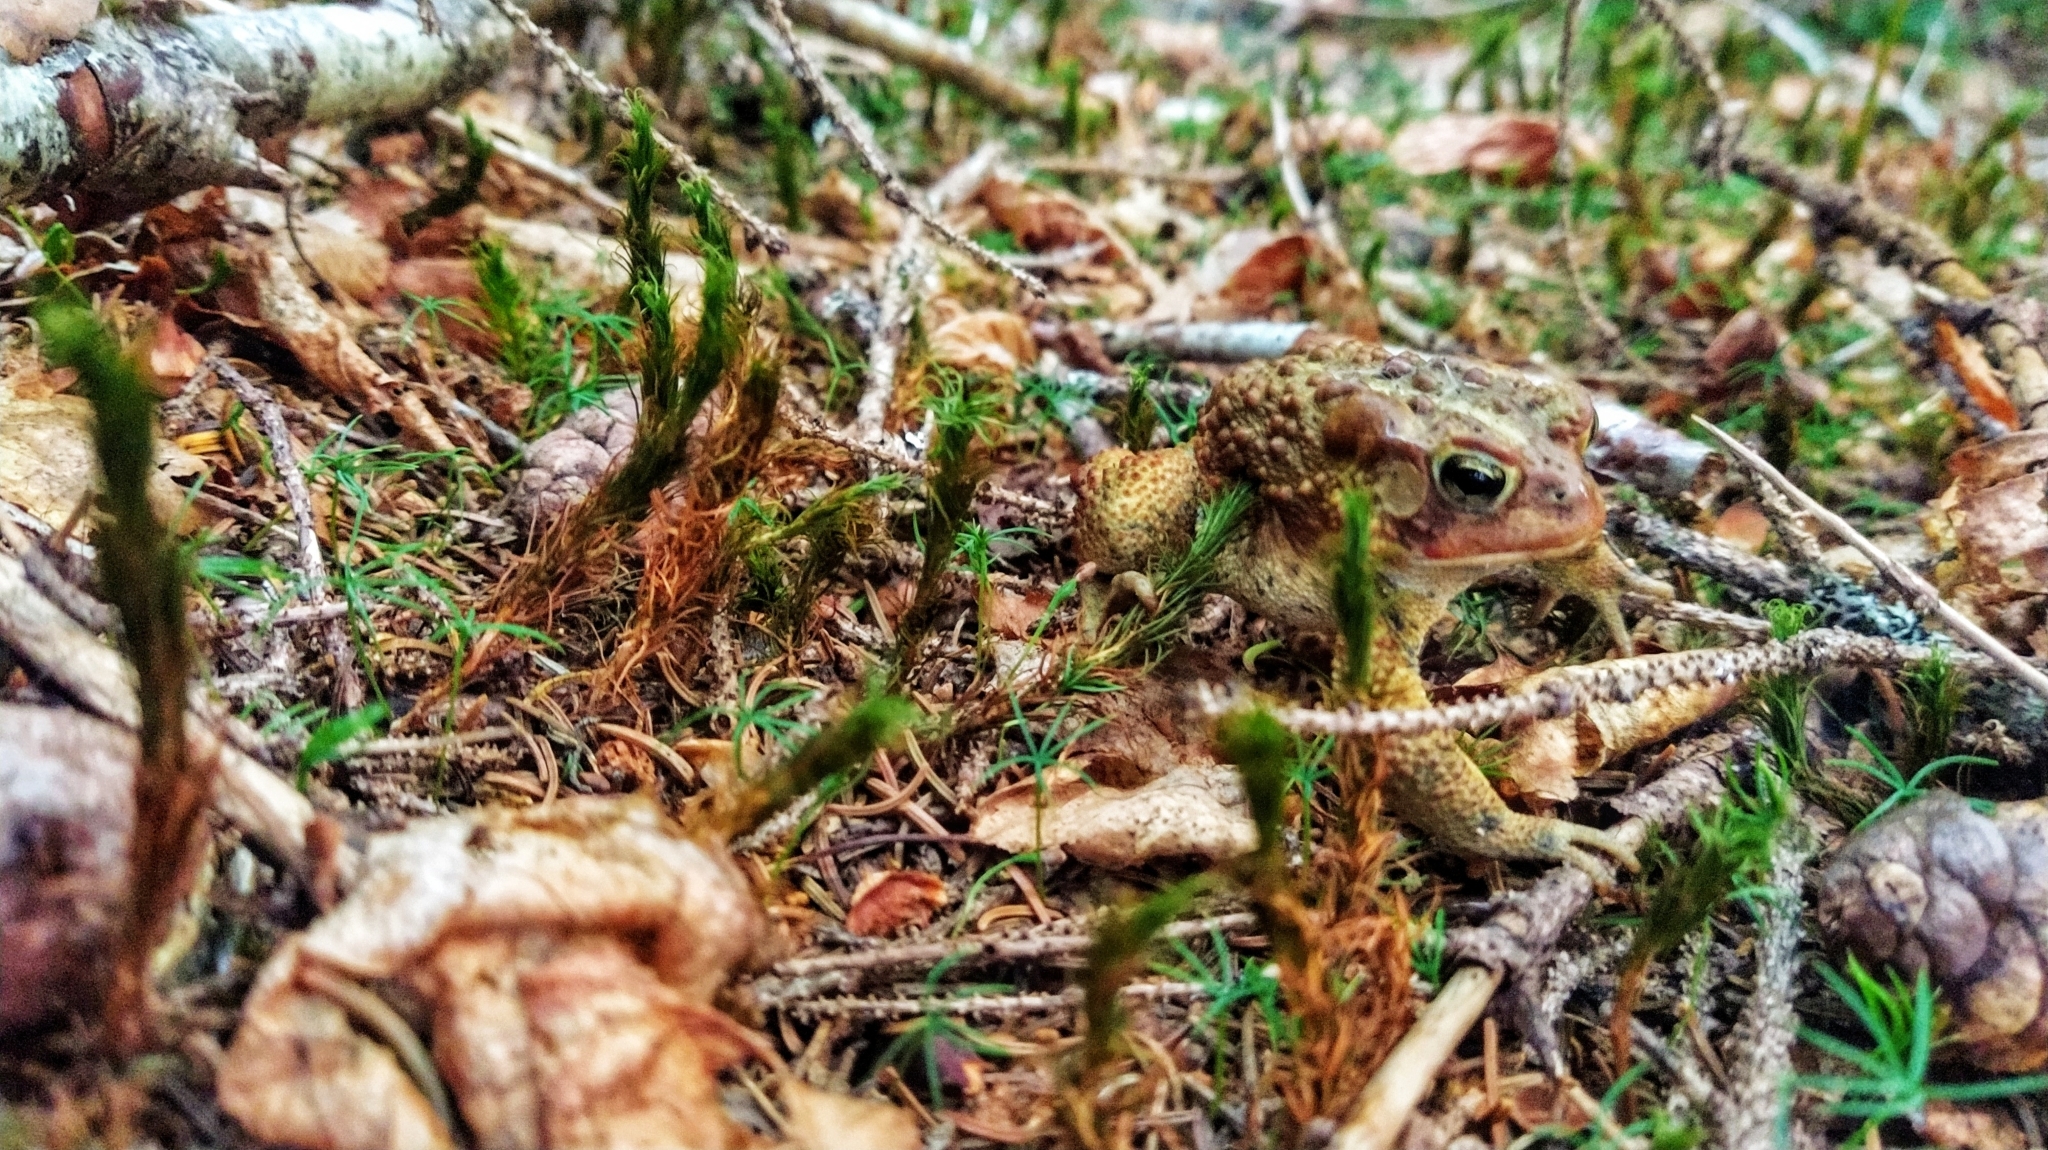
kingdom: Animalia
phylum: Chordata
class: Amphibia
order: Anura
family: Bufonidae
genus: Anaxyrus
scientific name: Anaxyrus americanus
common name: American toad
